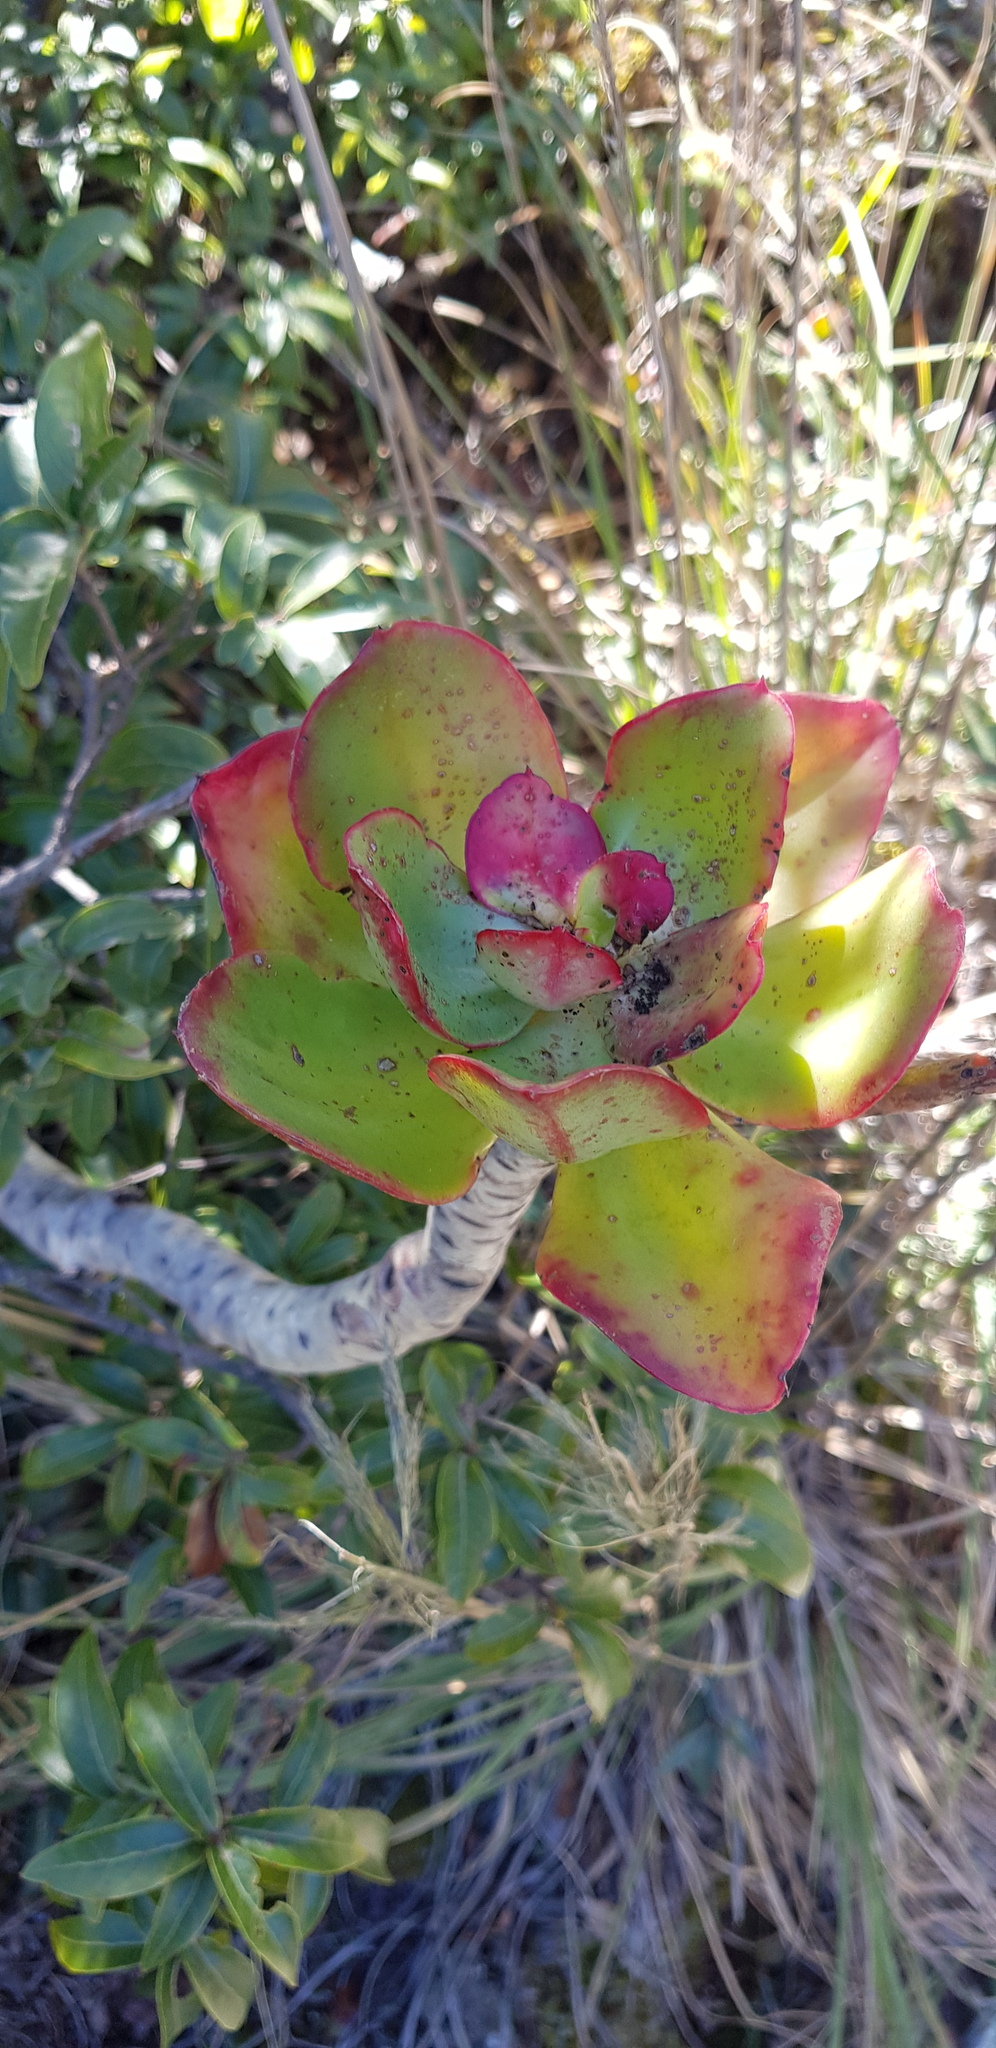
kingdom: Plantae
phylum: Tracheophyta
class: Magnoliopsida
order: Saxifragales
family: Crassulaceae
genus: Echeveria
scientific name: Echeveria montana
